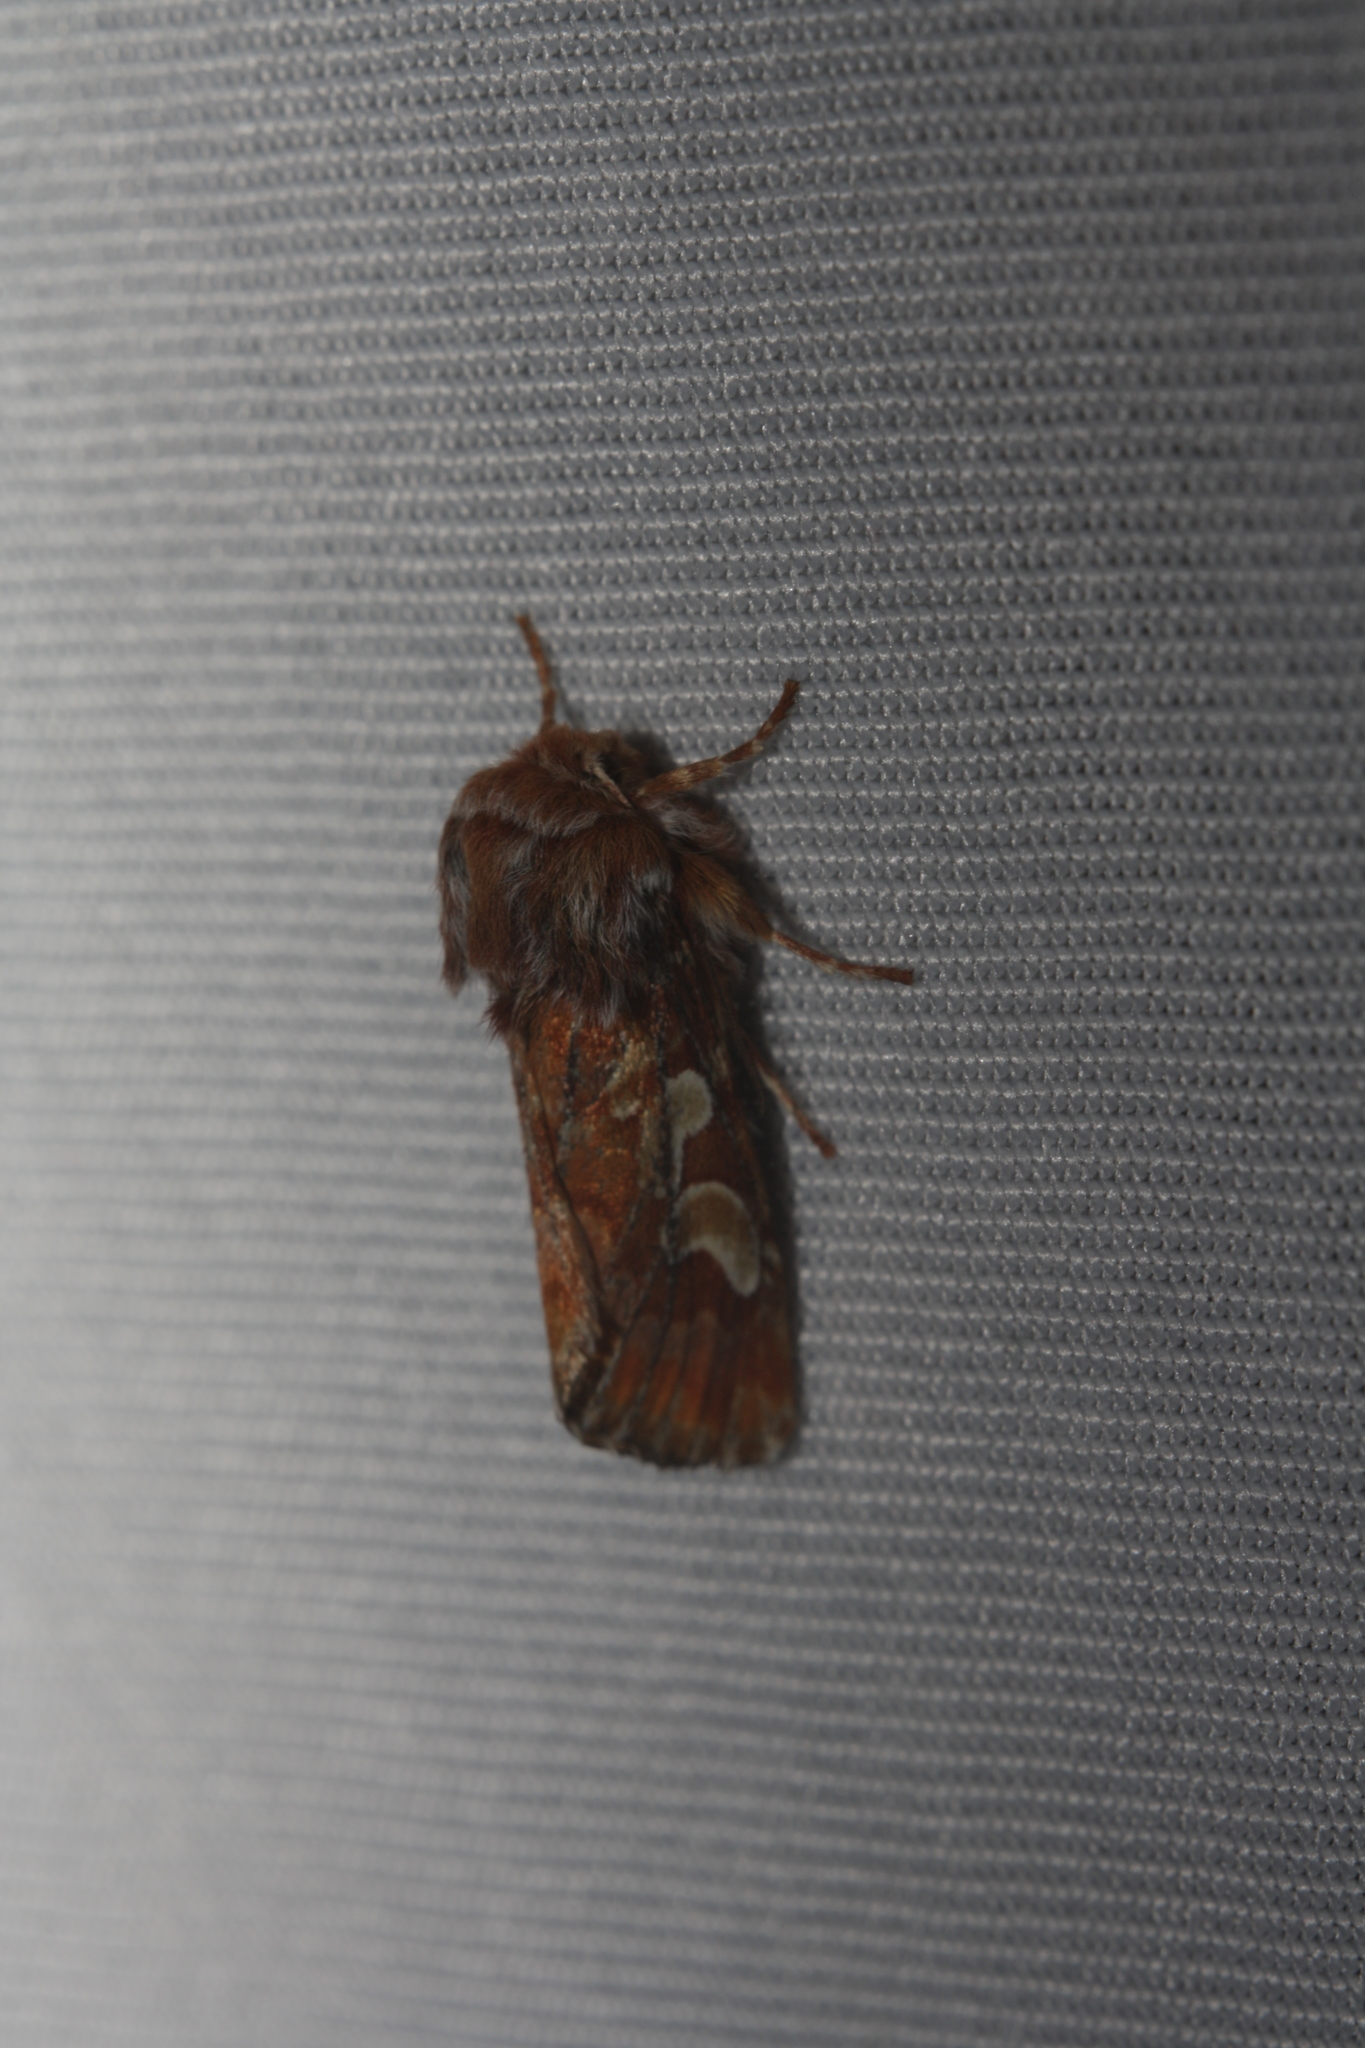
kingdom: Animalia
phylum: Arthropoda
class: Insecta
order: Lepidoptera
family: Noctuidae
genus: Panolis
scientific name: Panolis flammea
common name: Pine beauty
